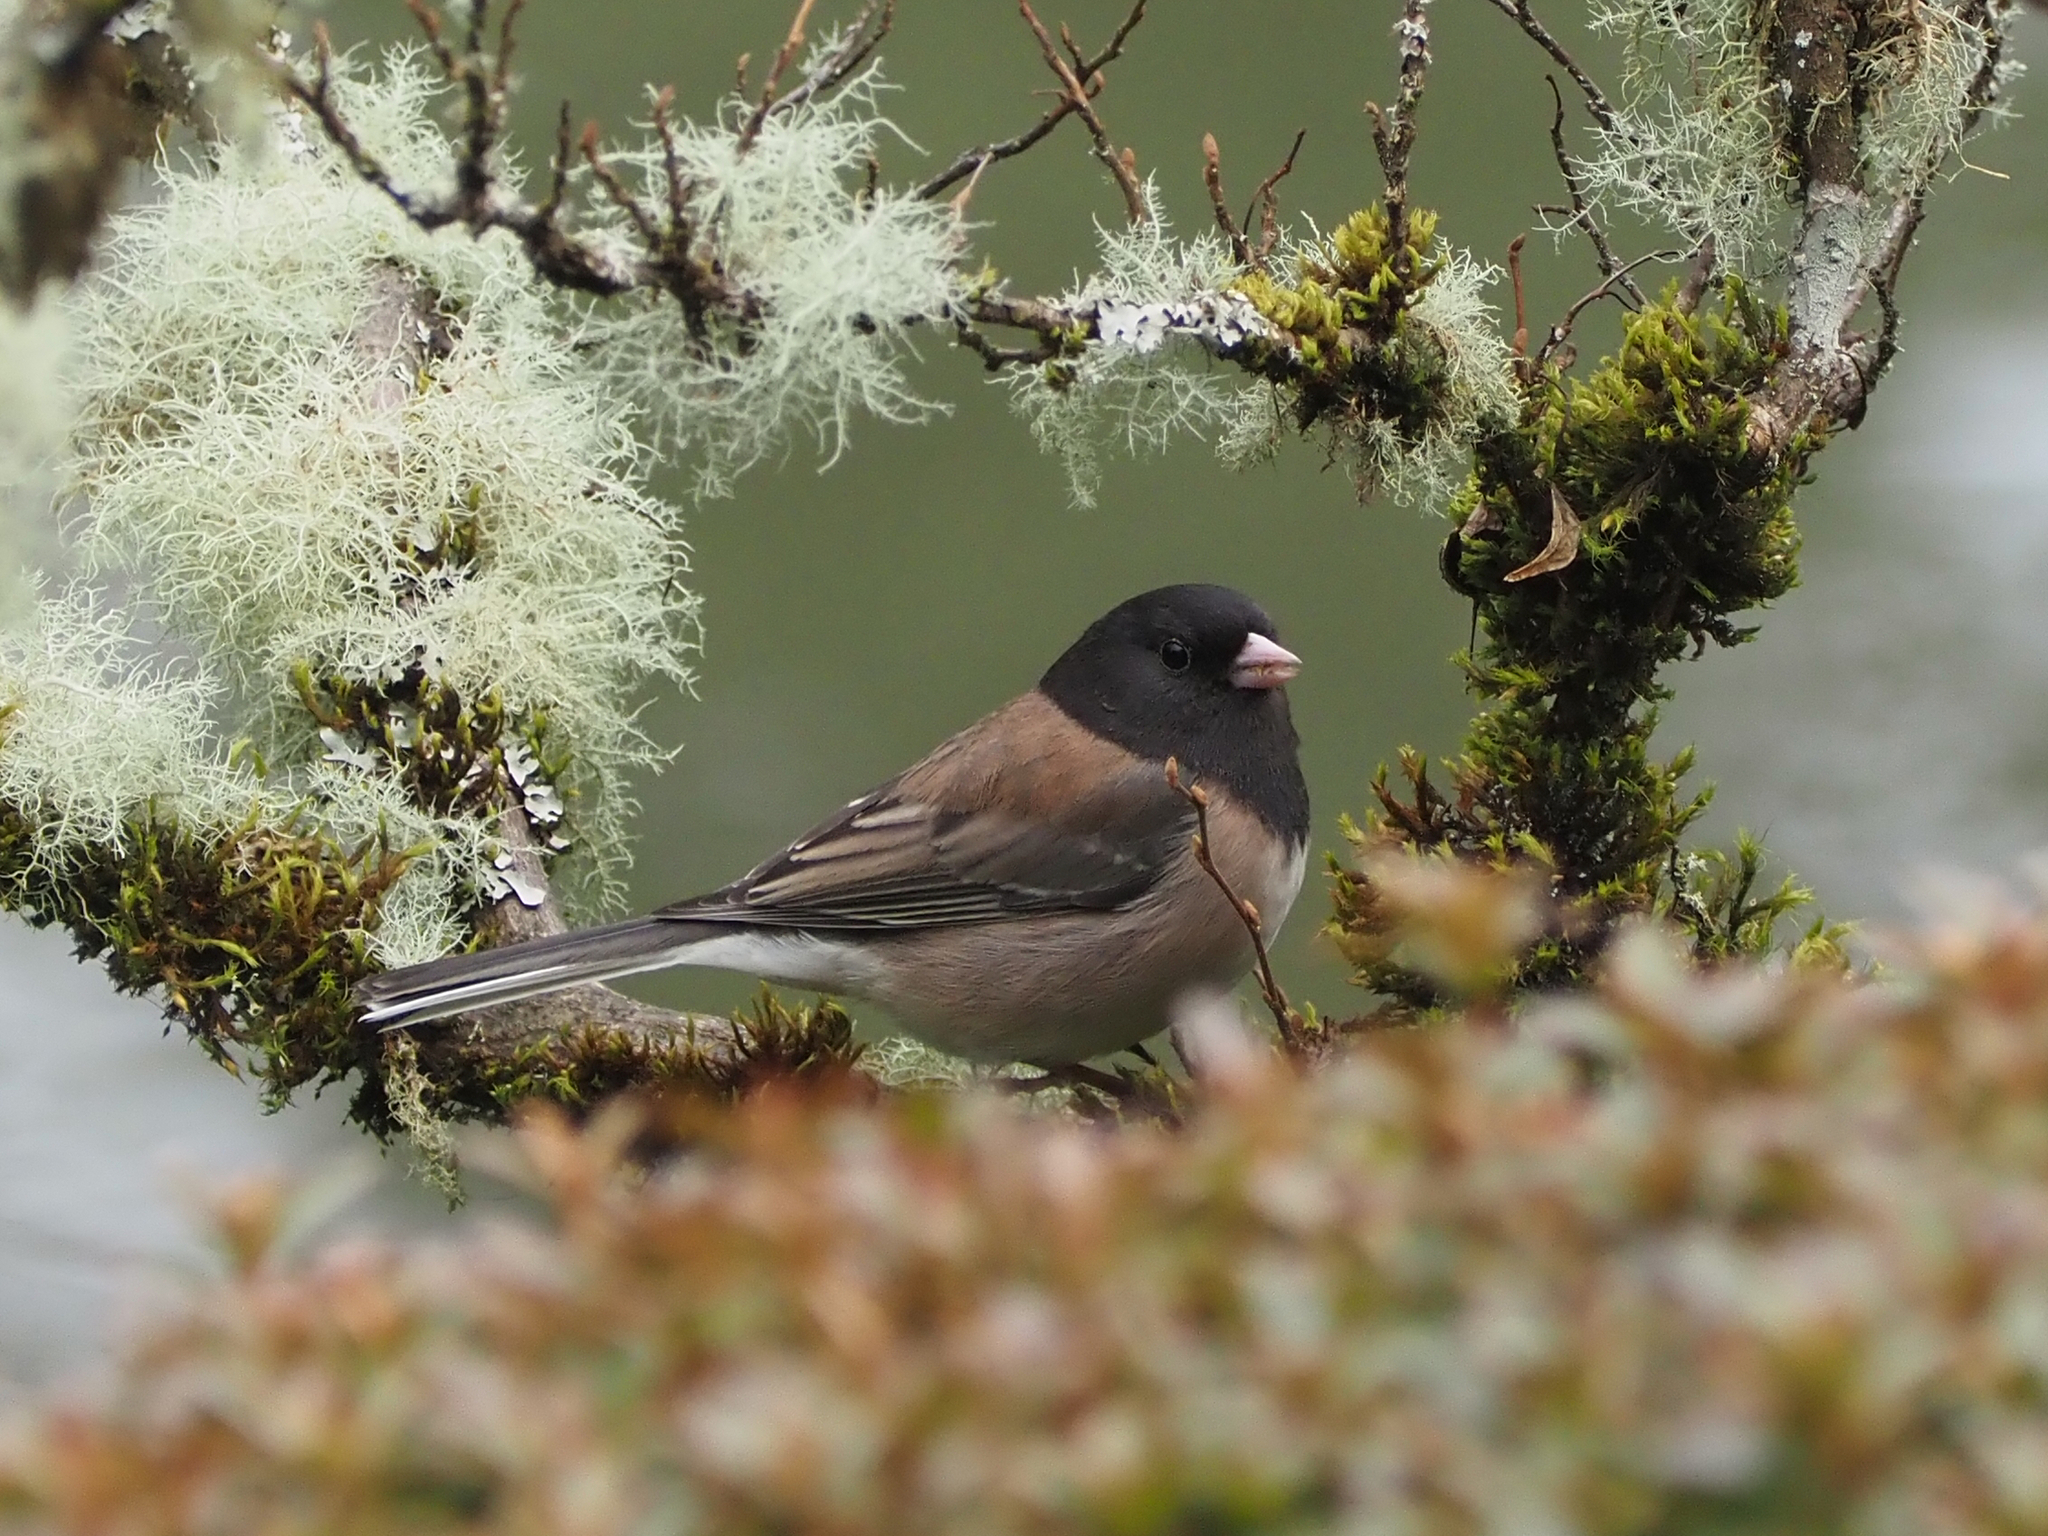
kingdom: Animalia
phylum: Chordata
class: Aves
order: Passeriformes
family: Passerellidae
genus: Junco
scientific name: Junco hyemalis
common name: Dark-eyed junco
